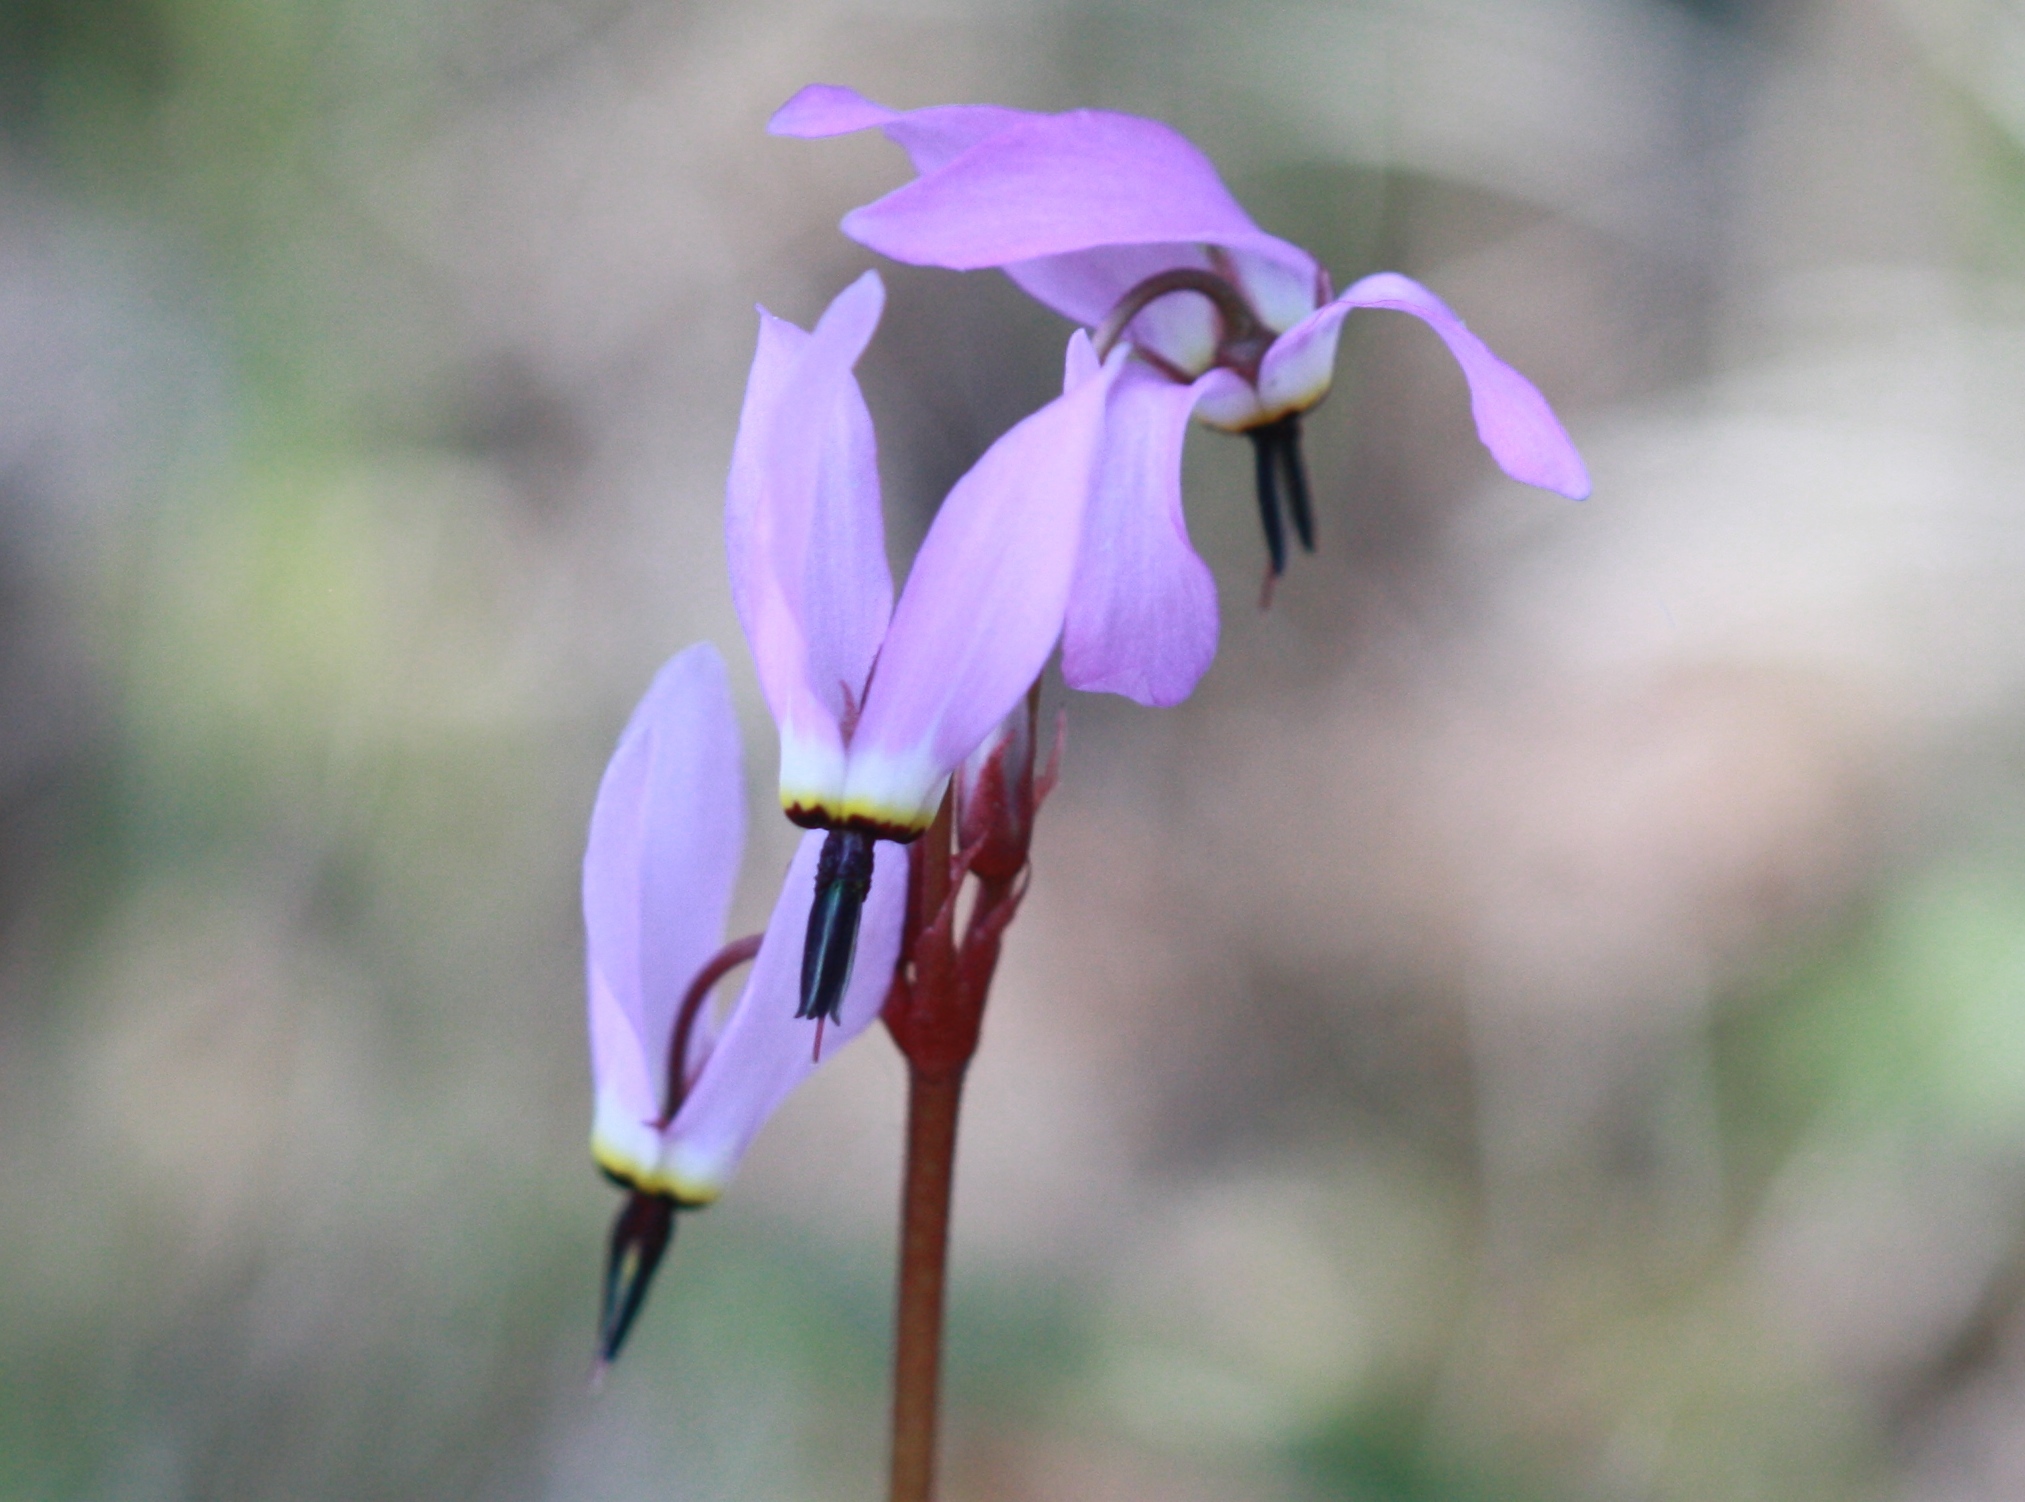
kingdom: Plantae
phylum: Tracheophyta
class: Magnoliopsida
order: Ericales
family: Primulaceae
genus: Dodecatheon
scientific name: Dodecatheon hendersonii
